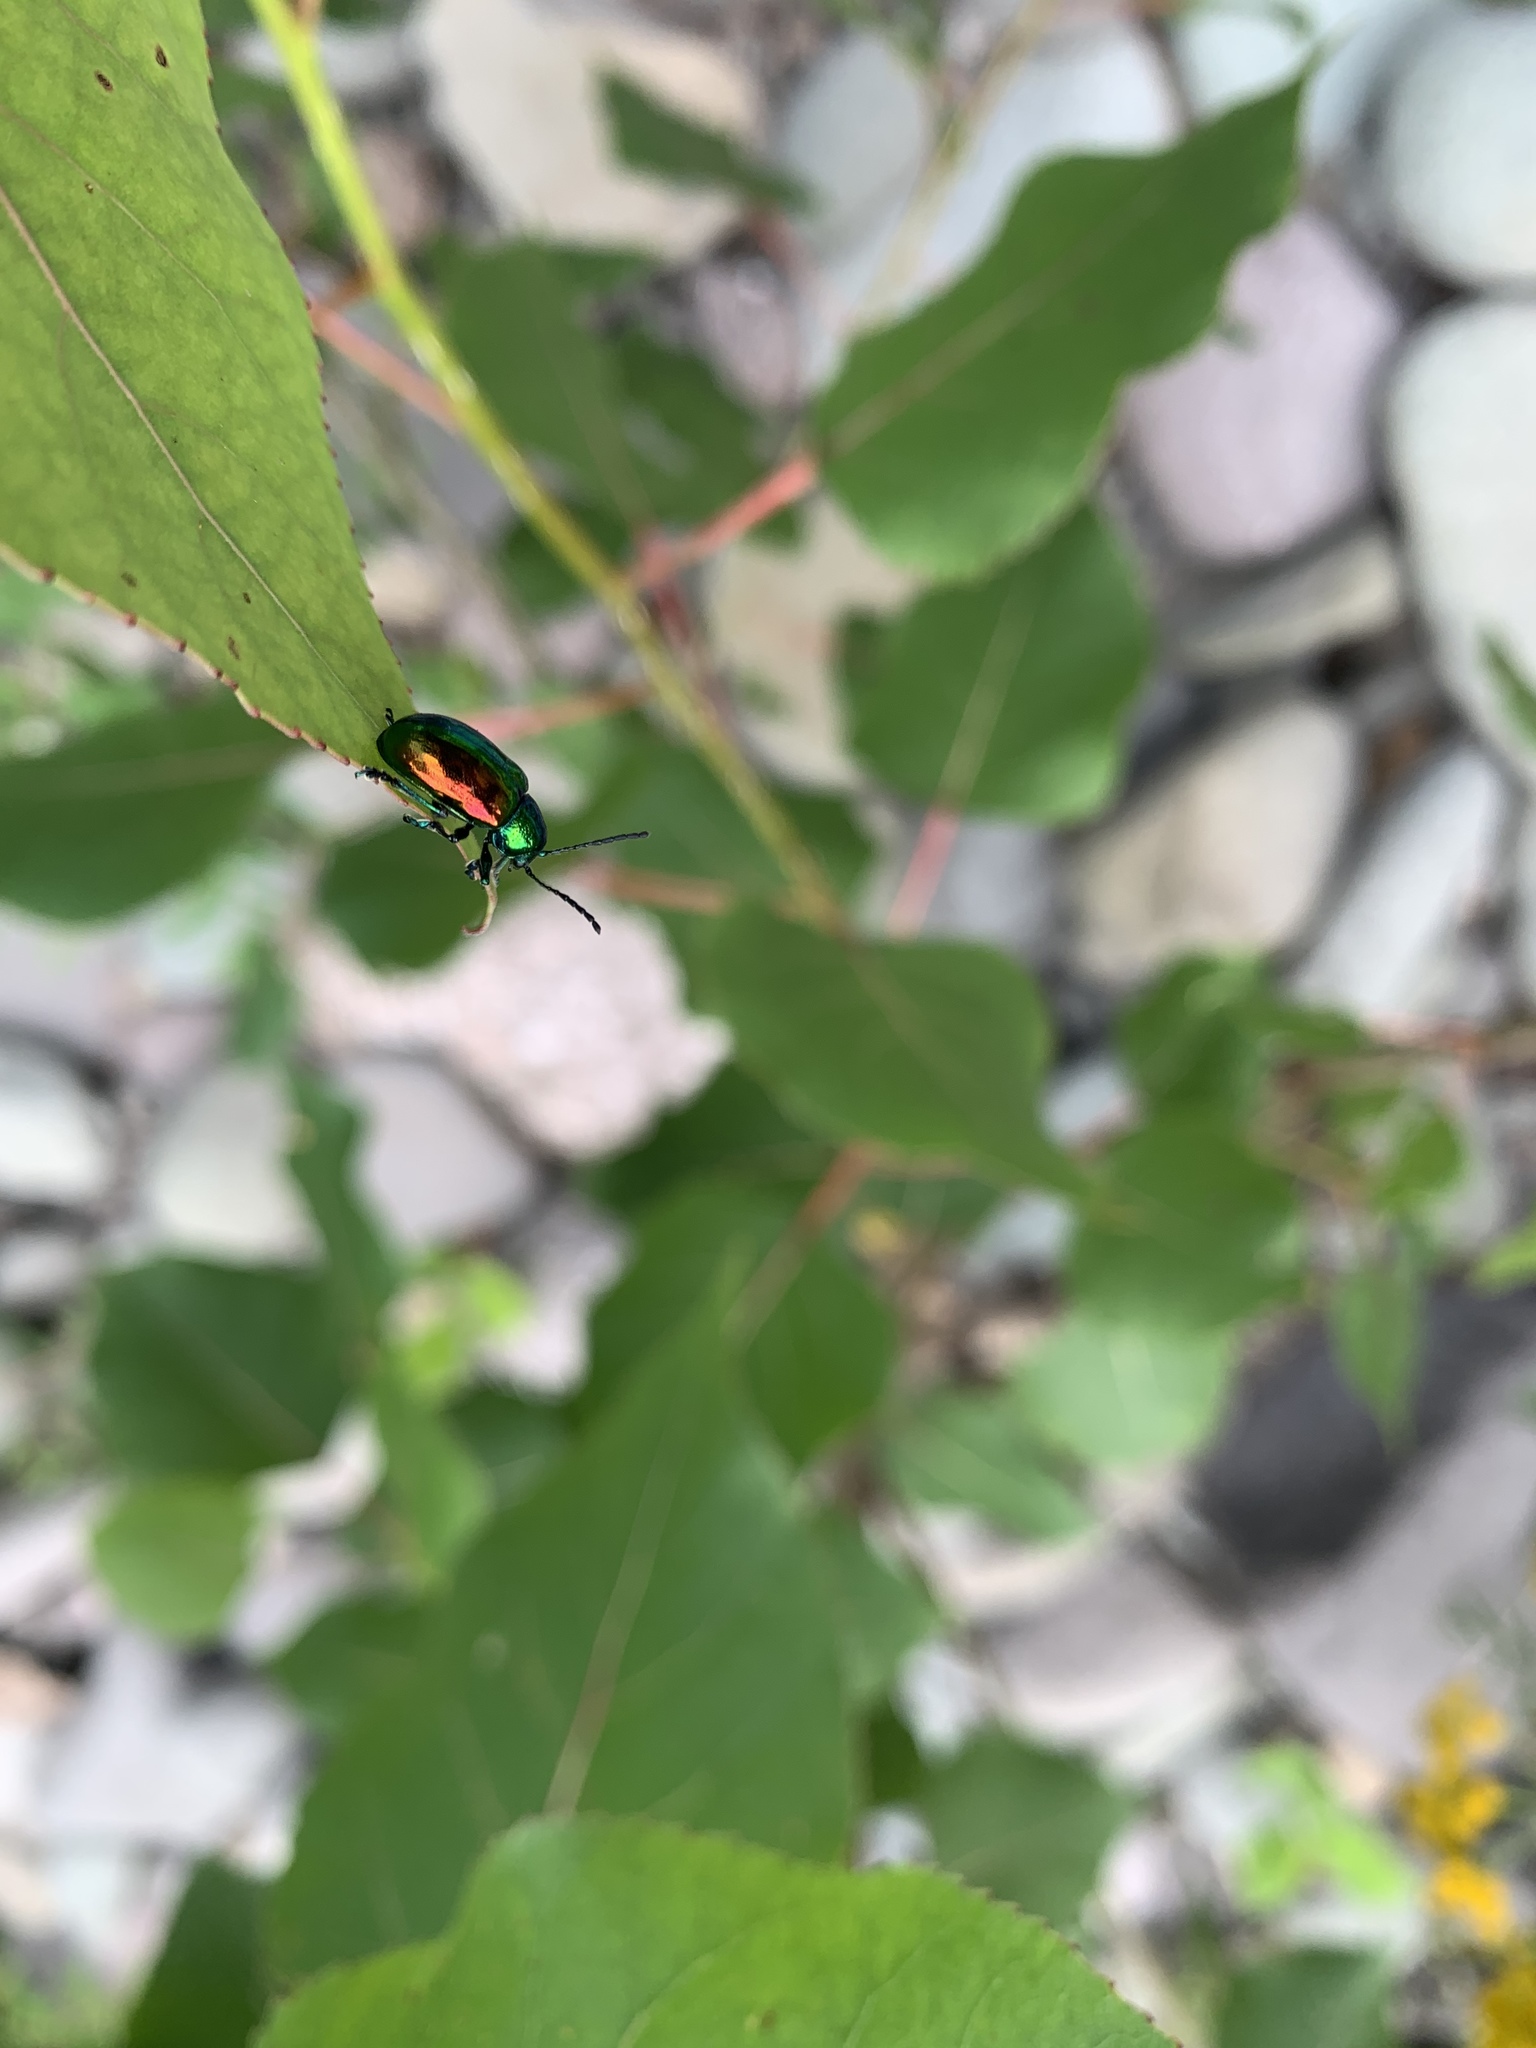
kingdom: Animalia
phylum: Arthropoda
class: Insecta
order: Coleoptera
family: Chrysomelidae
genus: Chrysochus
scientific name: Chrysochus auratus
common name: Dogbane leaf beetle
